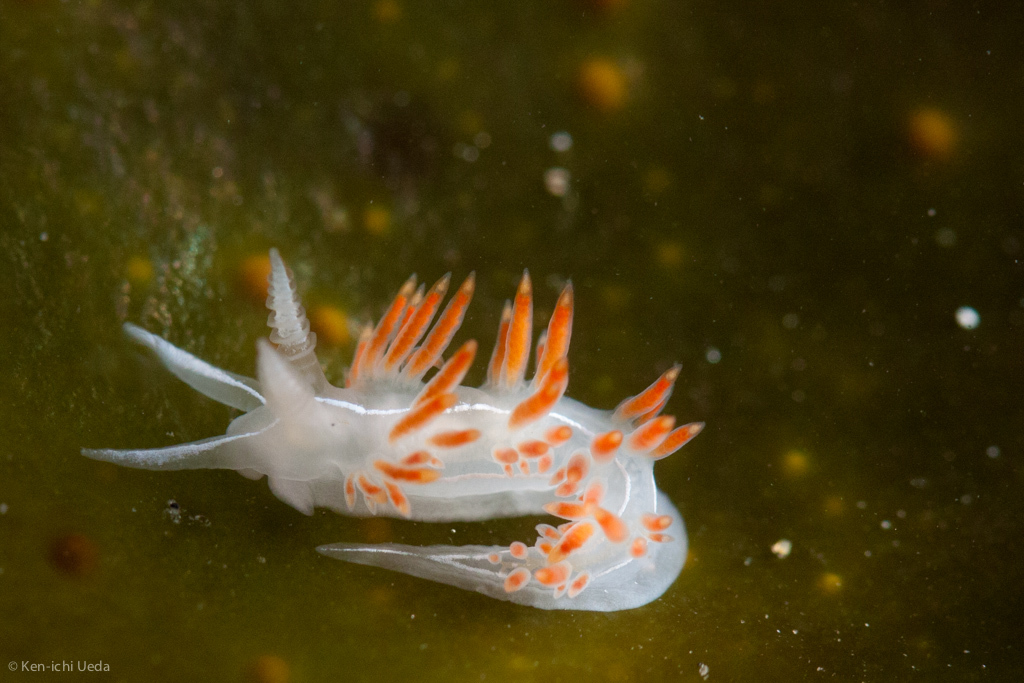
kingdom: Animalia
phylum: Mollusca
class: Gastropoda
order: Nudibranchia
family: Coryphellidae
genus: Coryphella
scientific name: Coryphella trilineata
